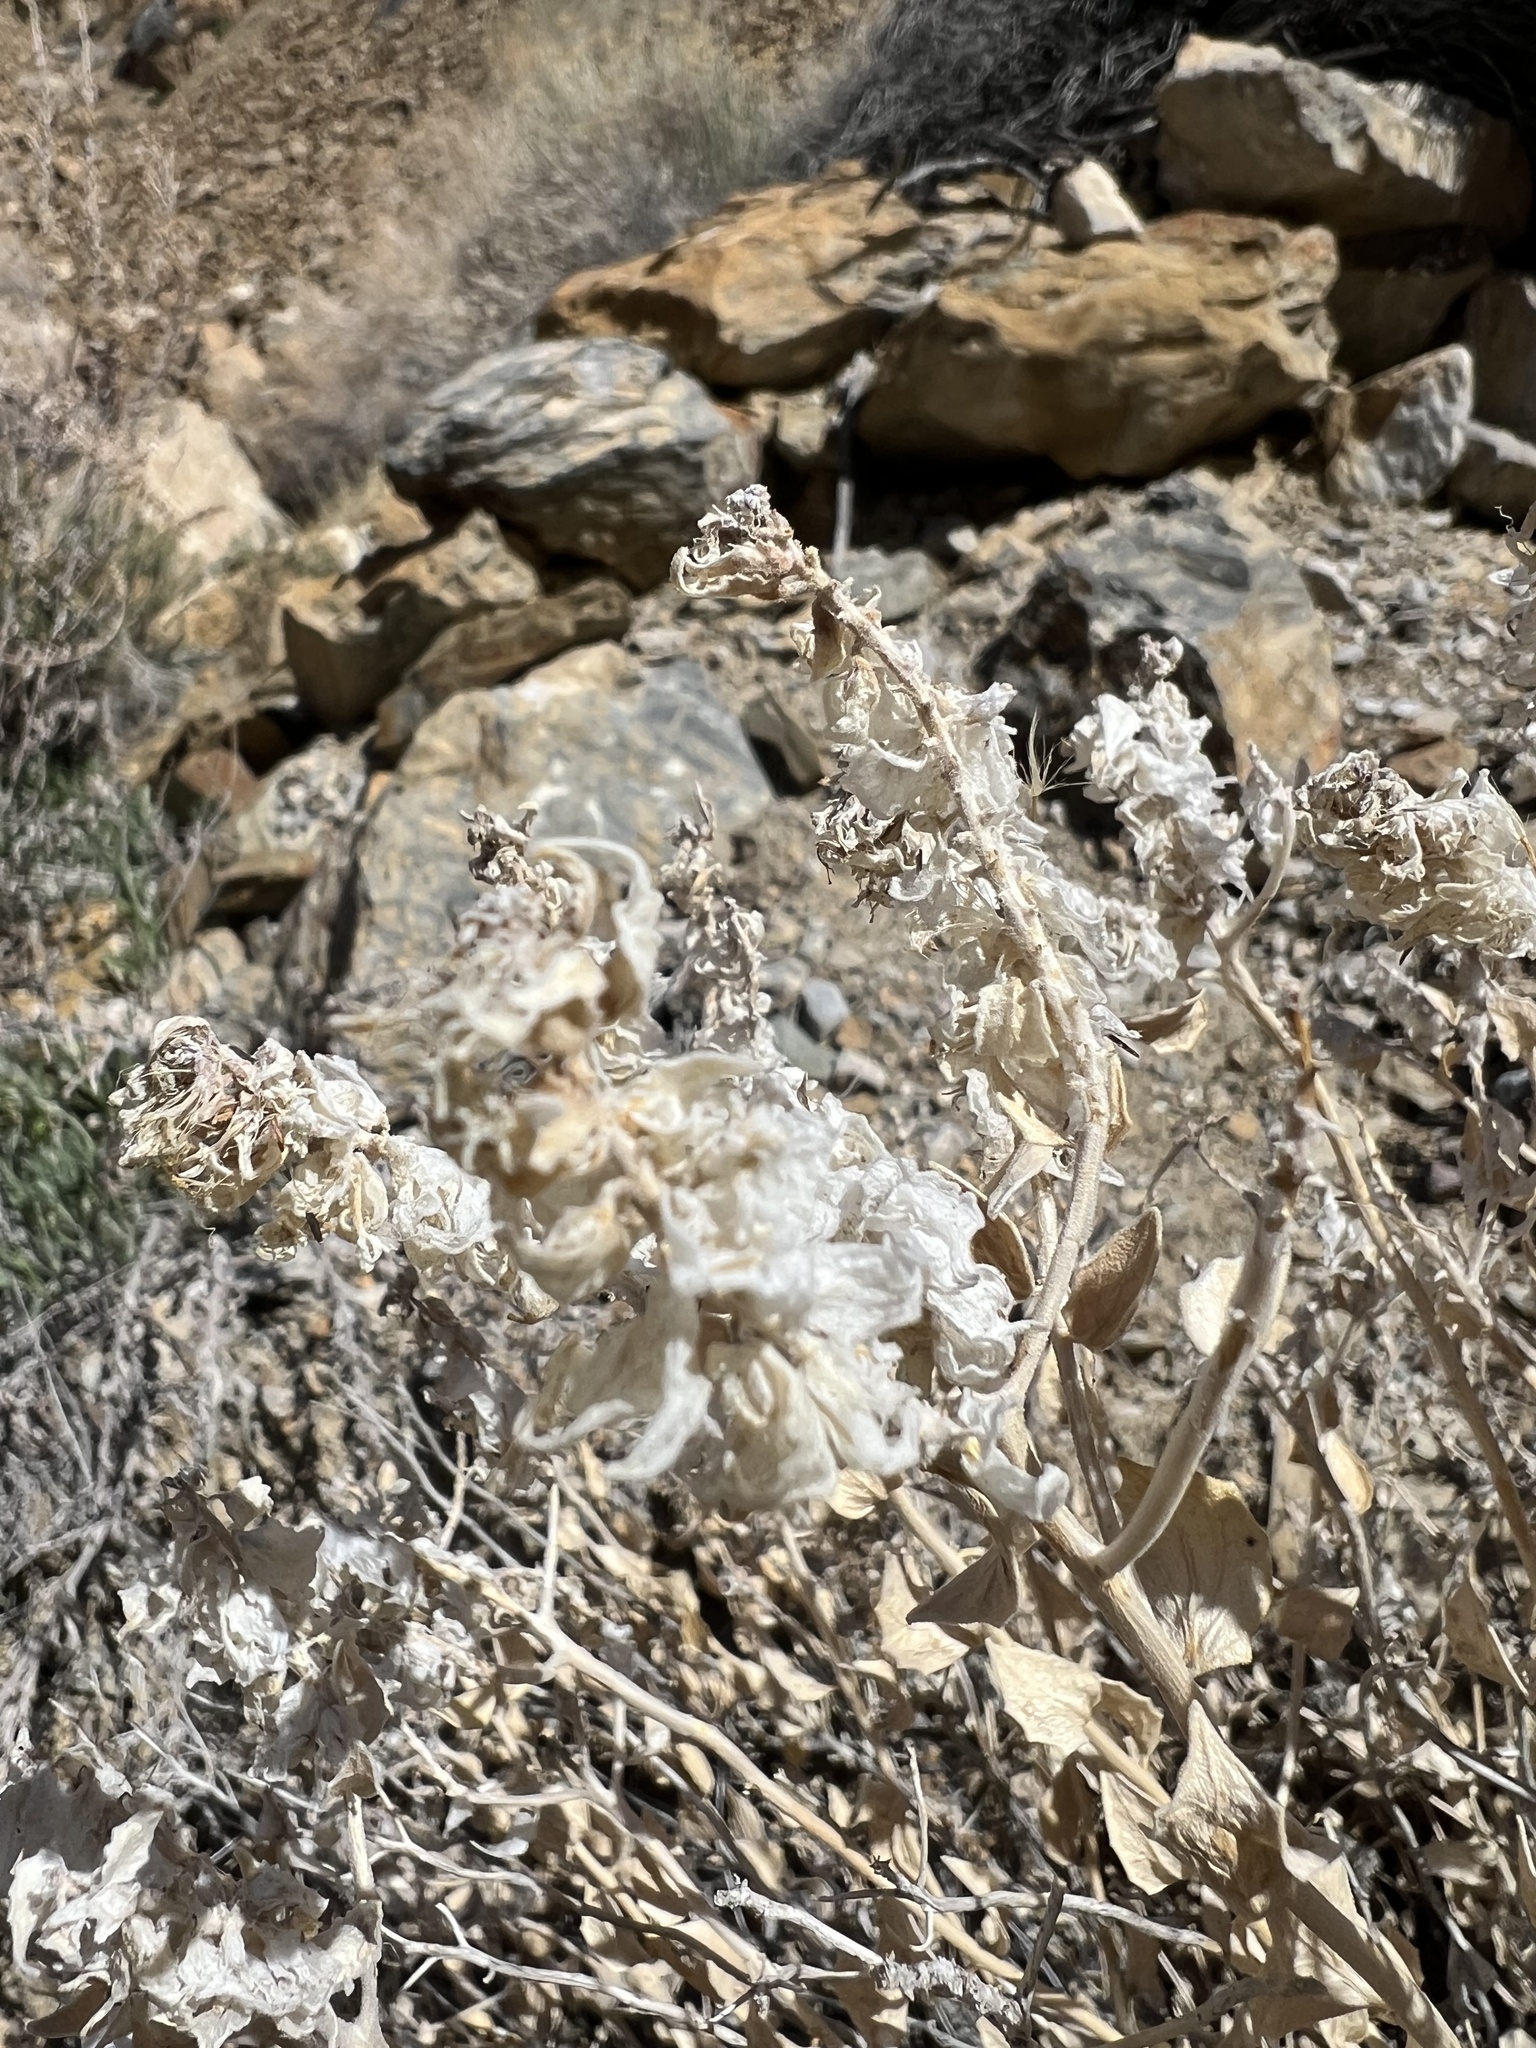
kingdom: Plantae
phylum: Tracheophyta
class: Magnoliopsida
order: Cornales
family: Loasaceae
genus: Petalonyx
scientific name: Petalonyx nitidus
